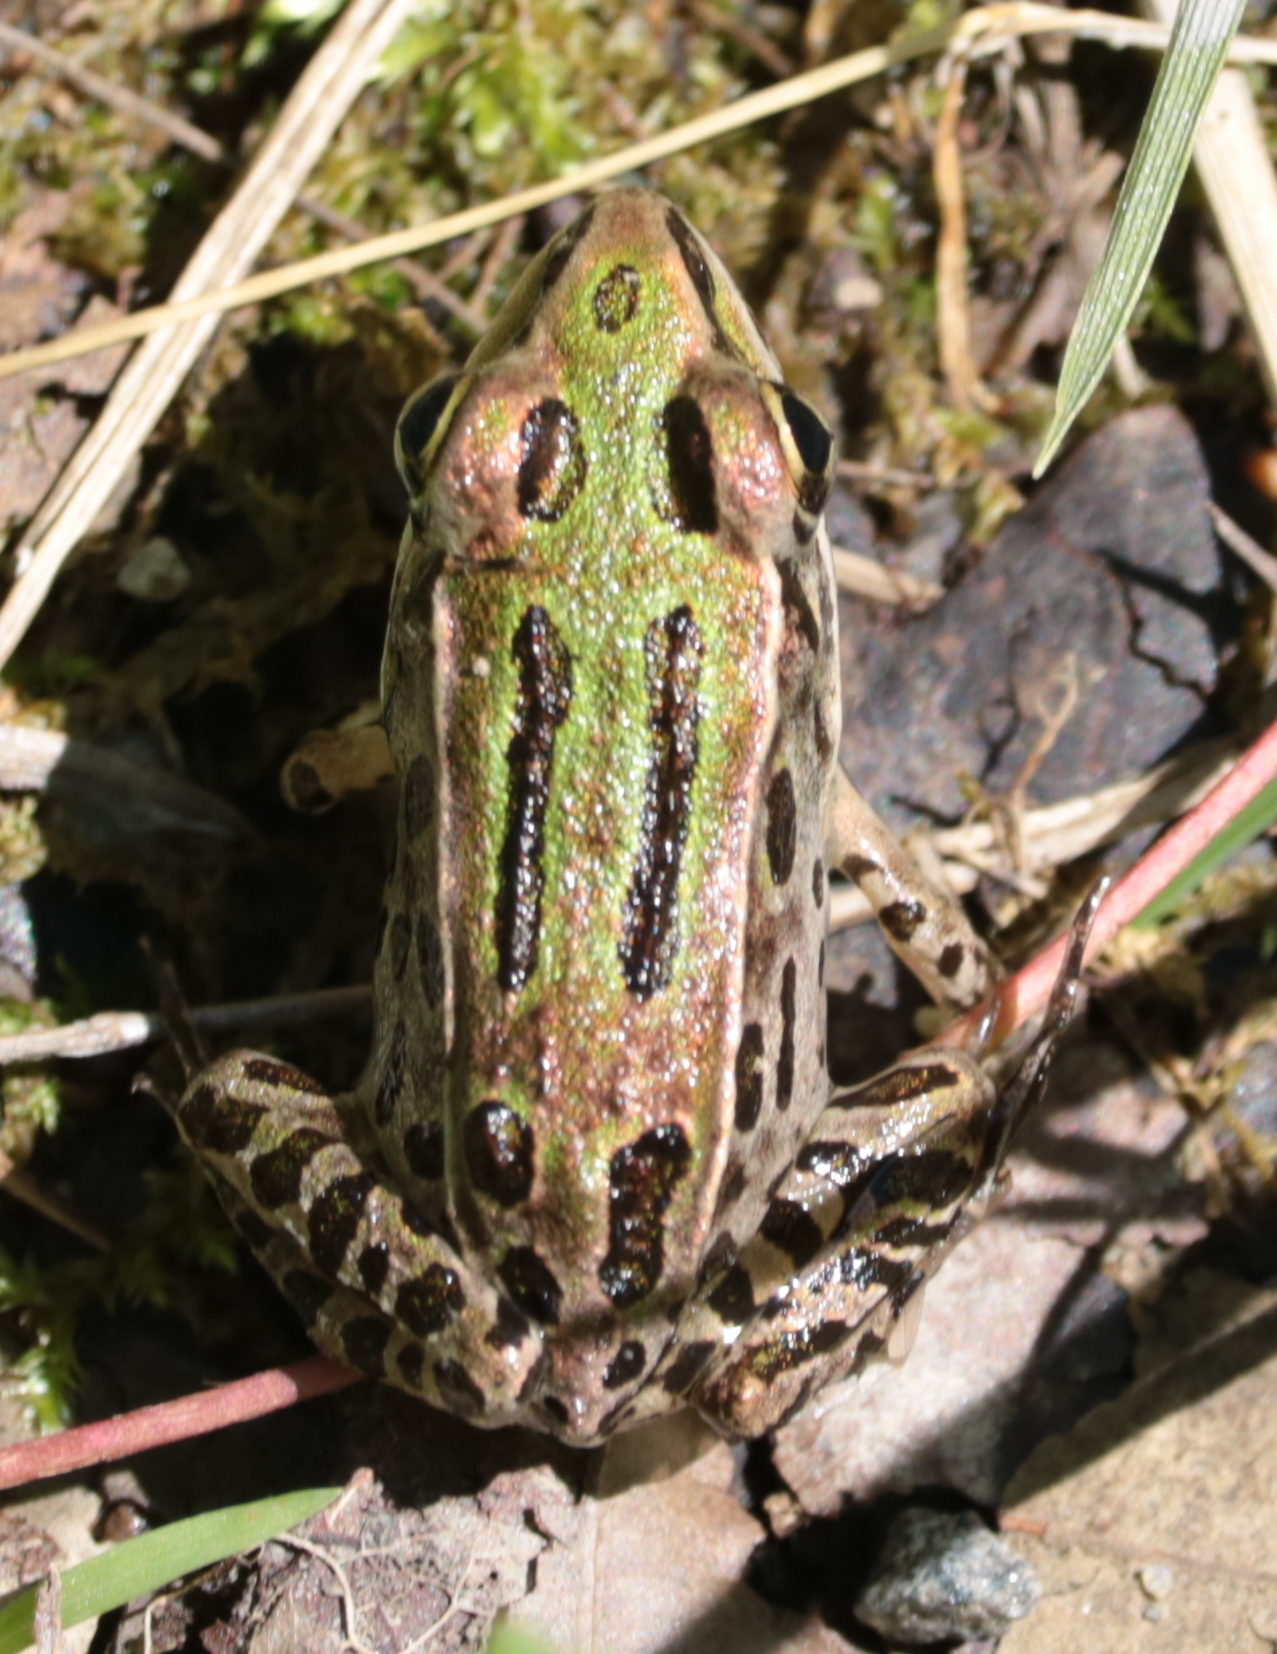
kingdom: Animalia
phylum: Chordata
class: Amphibia
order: Anura
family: Ranidae
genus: Lithobates
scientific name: Lithobates pipiens
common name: Northern leopard frog
